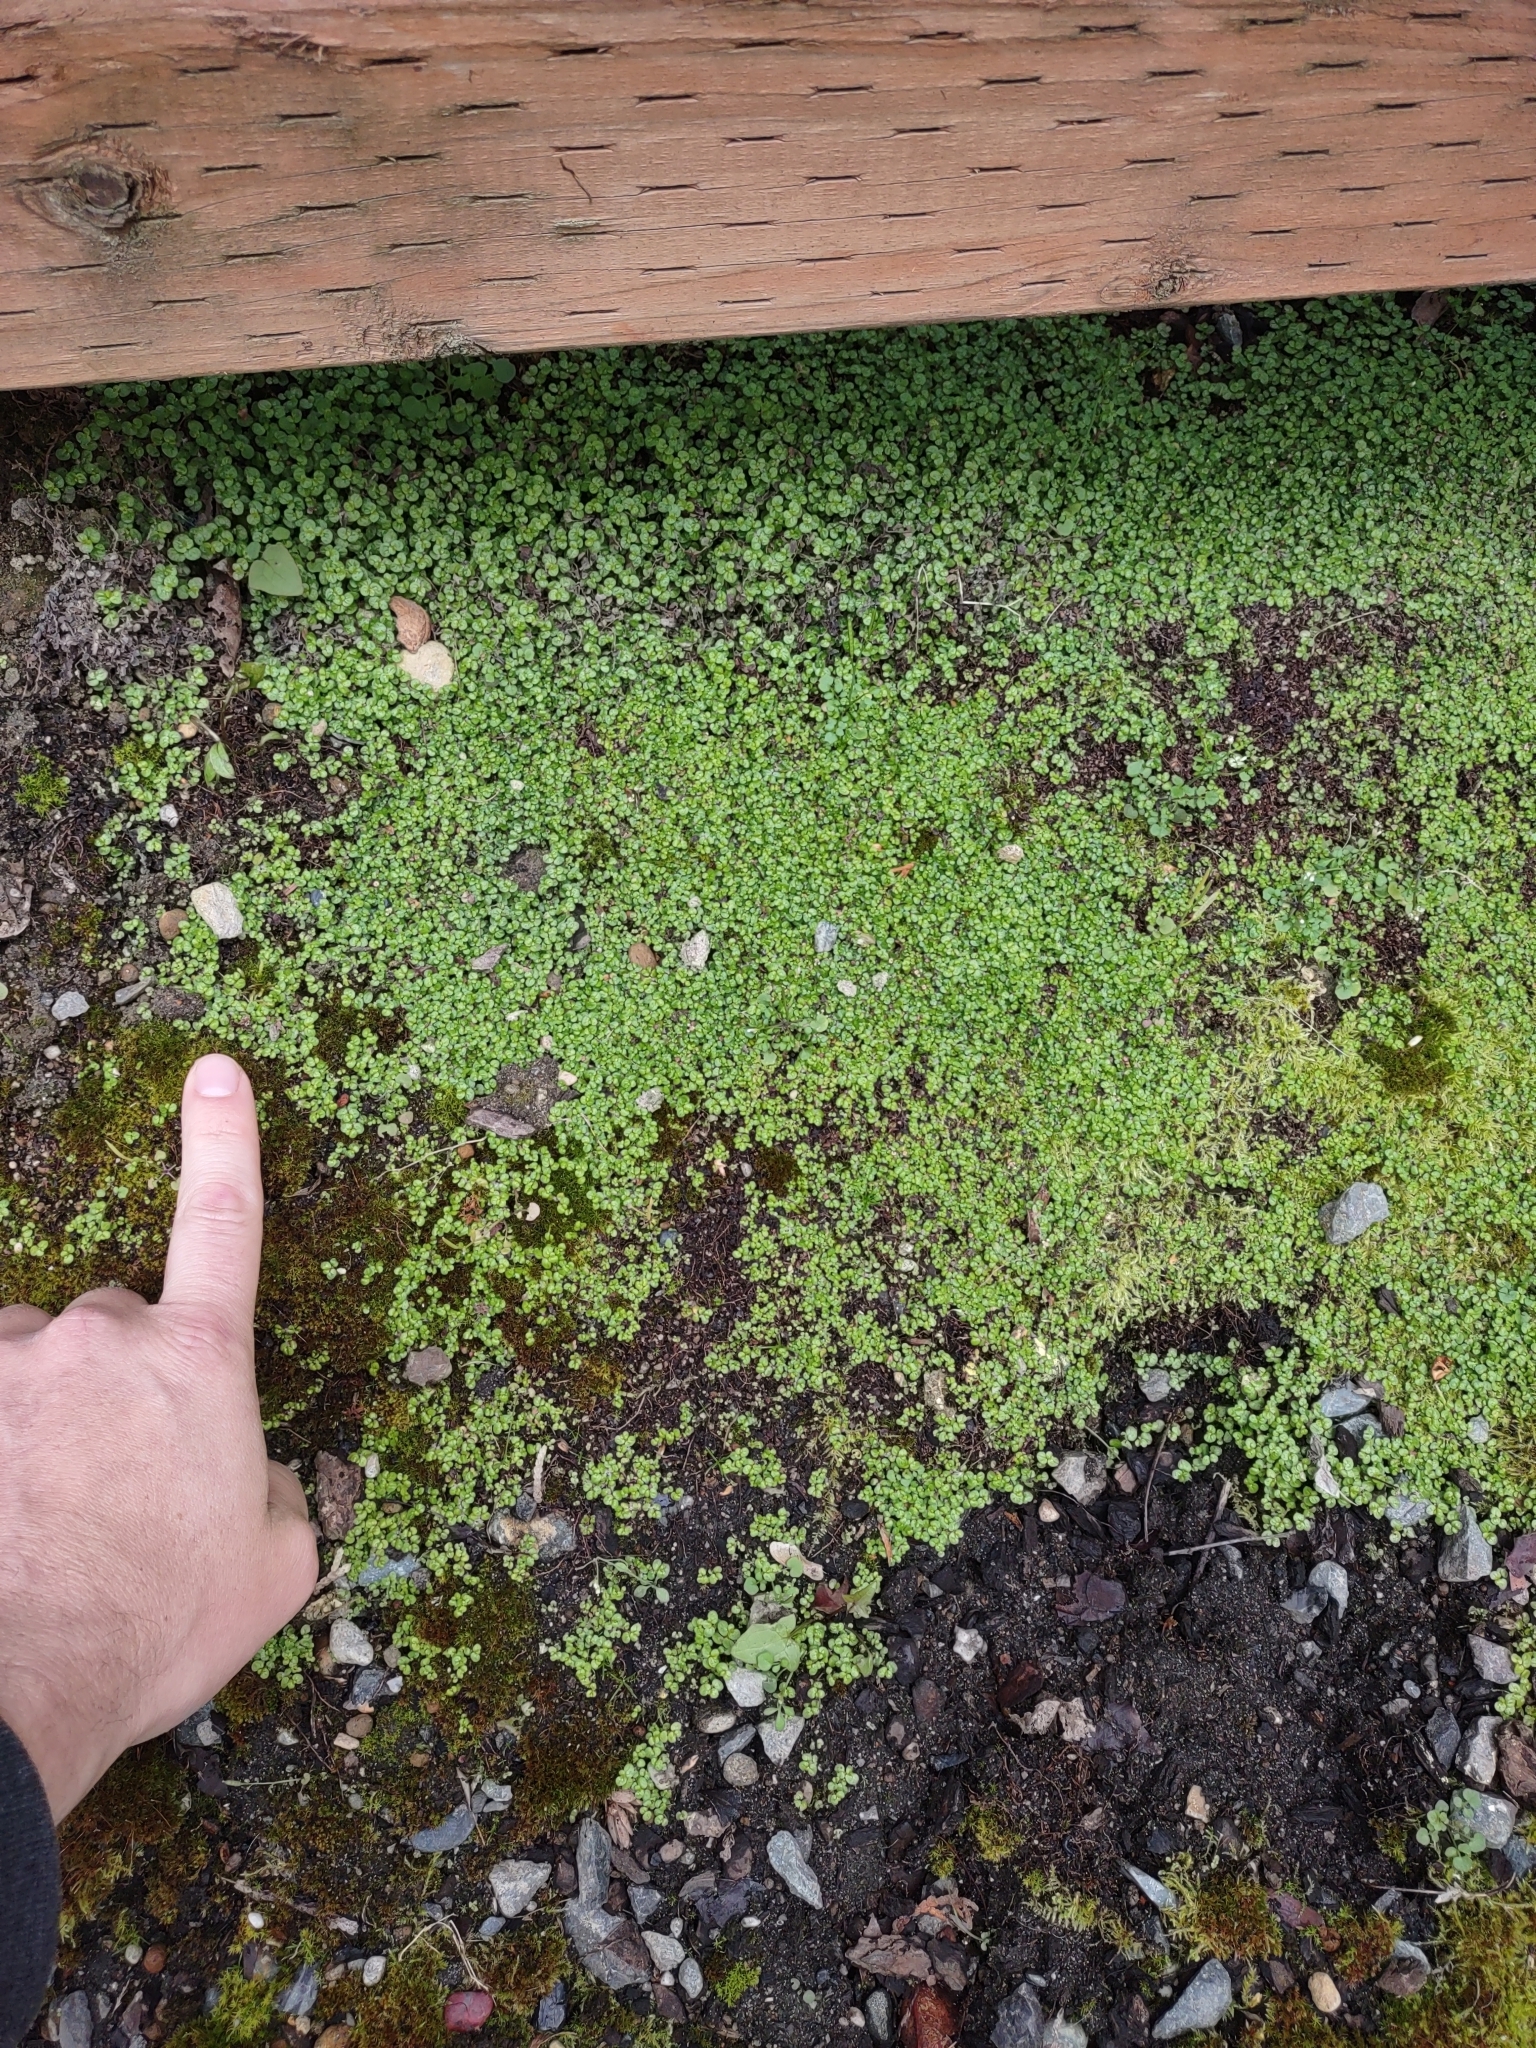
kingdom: Plantae
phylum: Tracheophyta
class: Magnoliopsida
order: Rosales
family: Urticaceae
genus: Soleirolia
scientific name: Soleirolia soleirolii
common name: Mind-your-own-business
